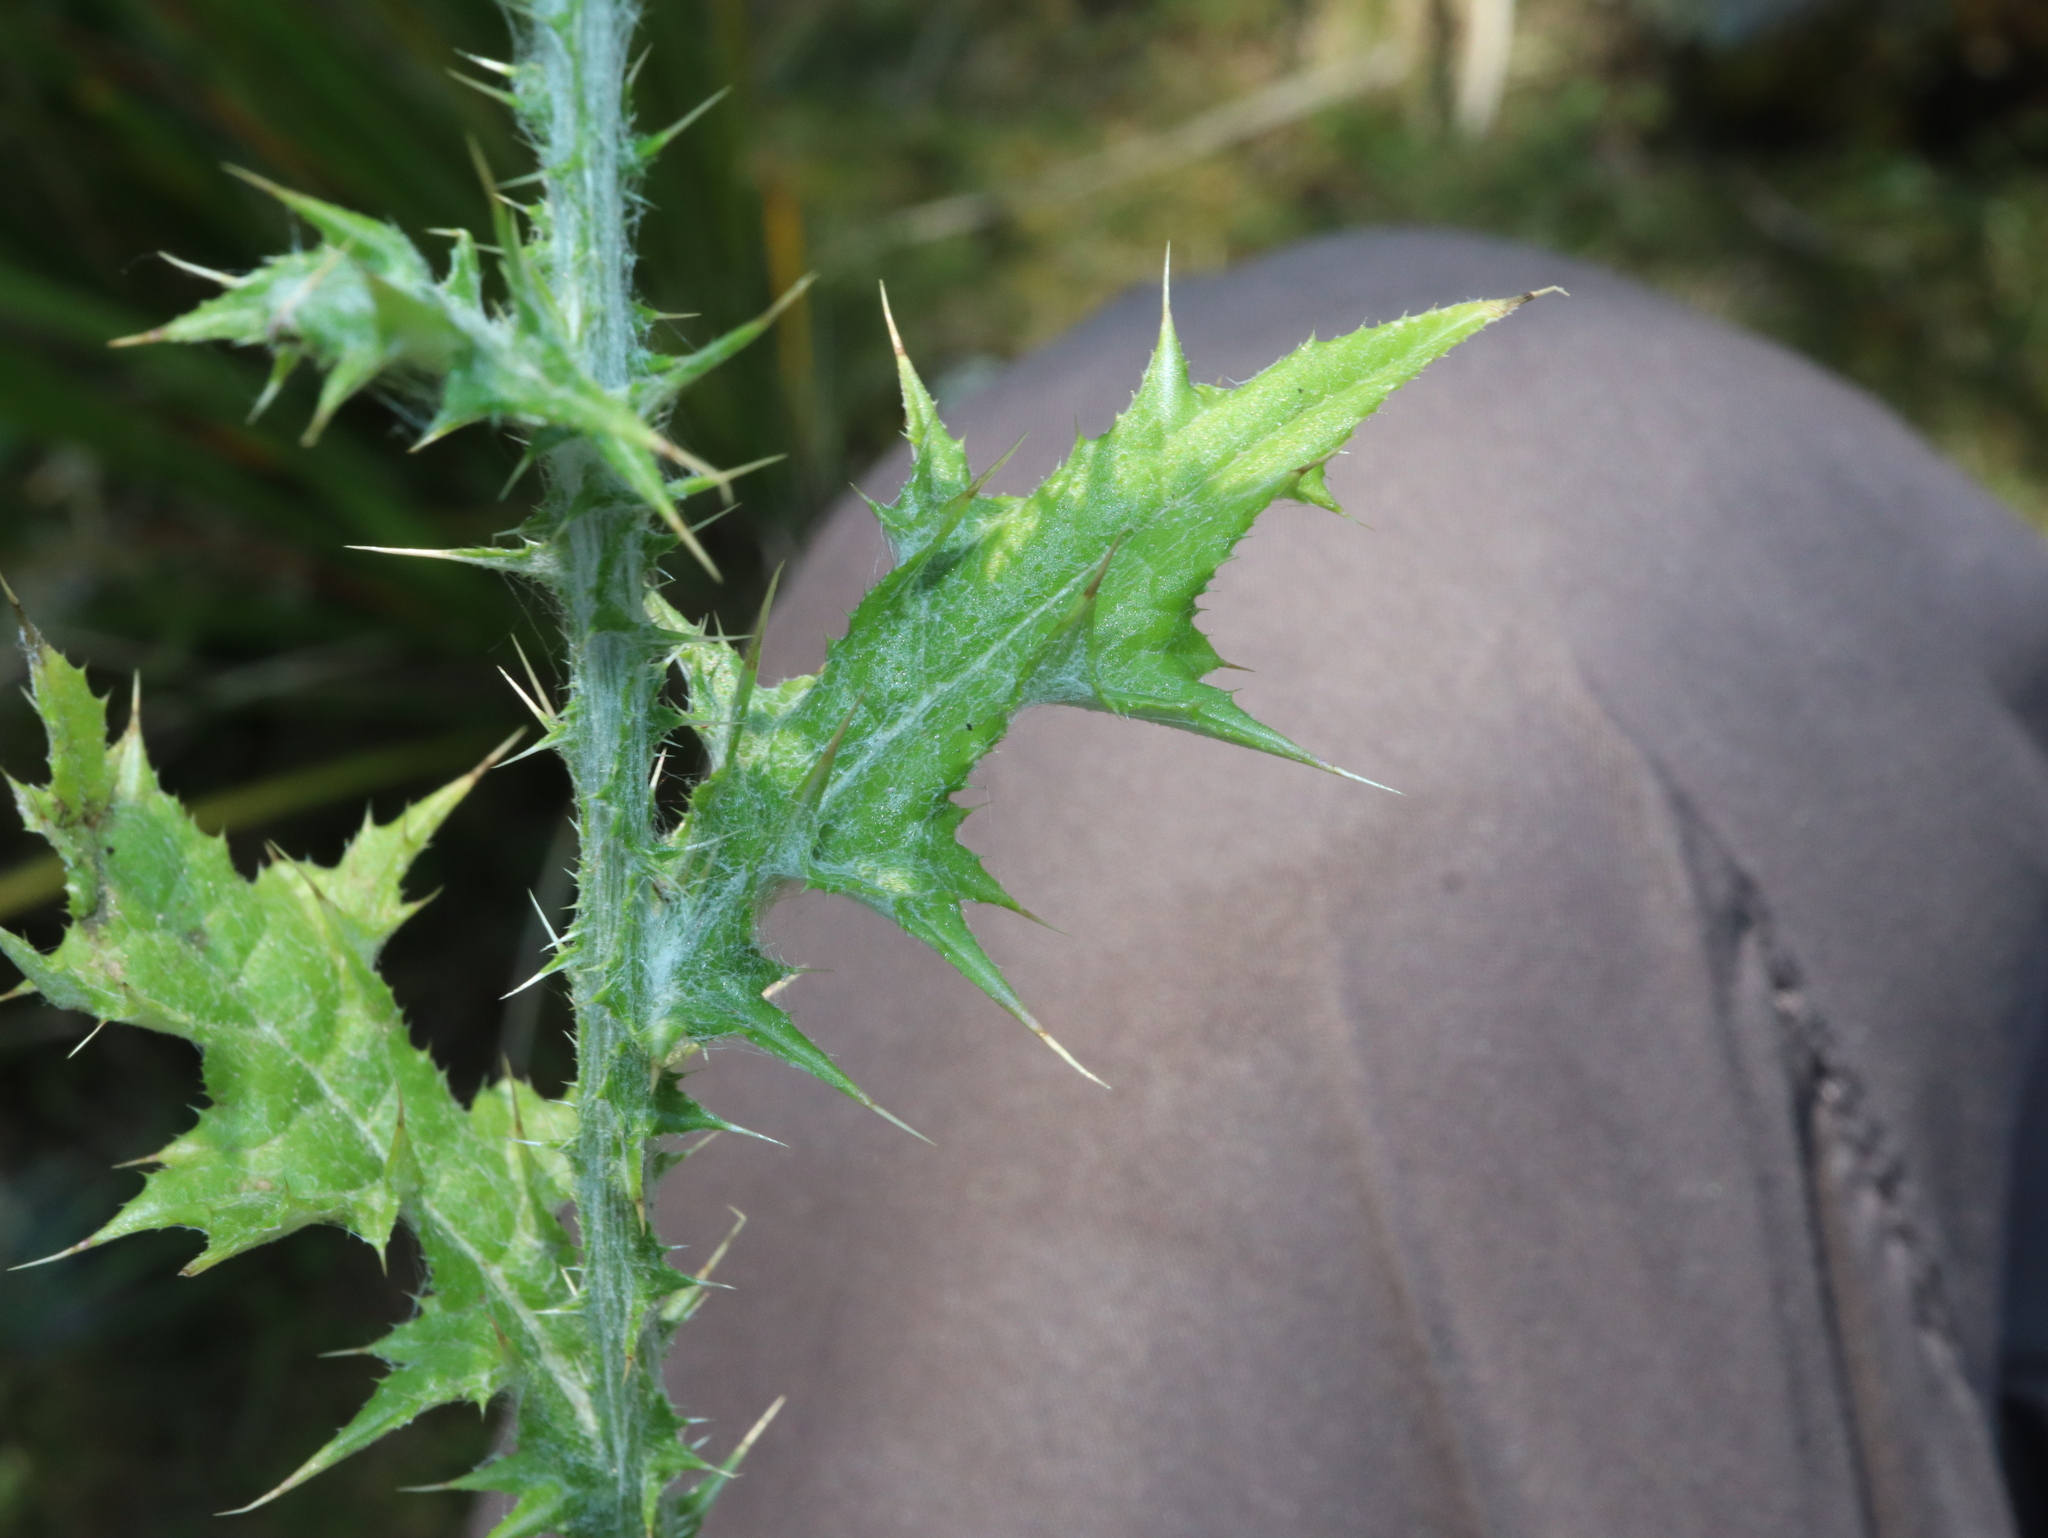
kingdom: Plantae
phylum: Tracheophyta
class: Magnoliopsida
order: Asterales
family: Asteraceae
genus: Carduus
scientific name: Carduus pycnocephalus
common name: Plymouth thistle
